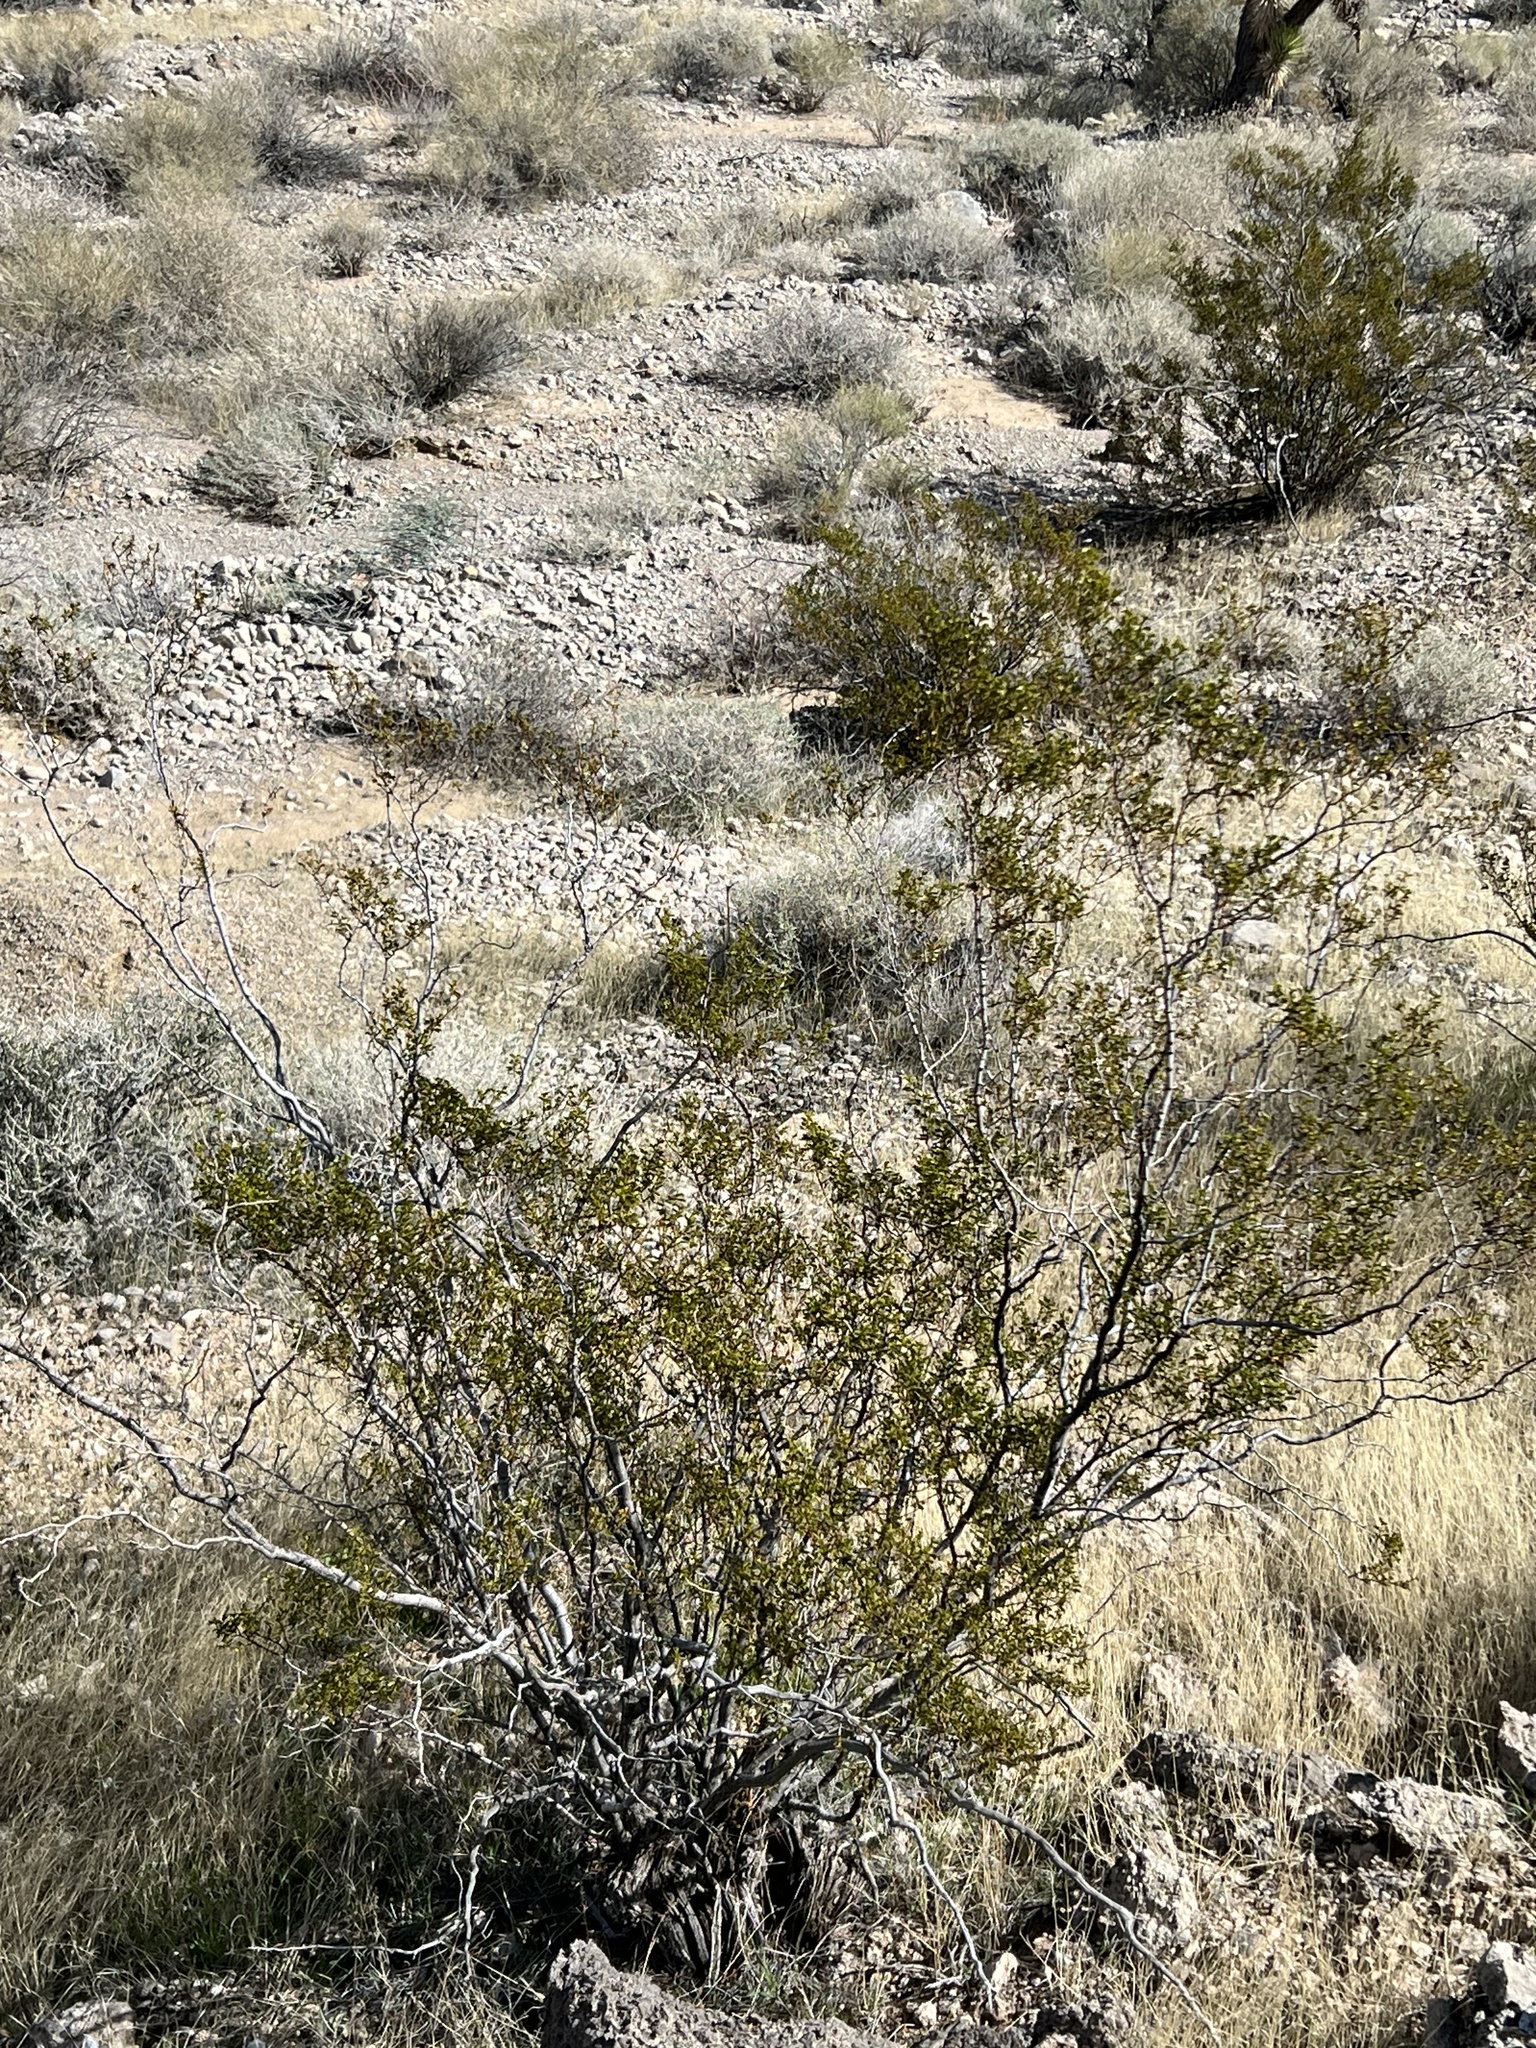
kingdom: Plantae
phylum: Tracheophyta
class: Magnoliopsida
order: Zygophyllales
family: Zygophyllaceae
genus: Larrea
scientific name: Larrea tridentata
